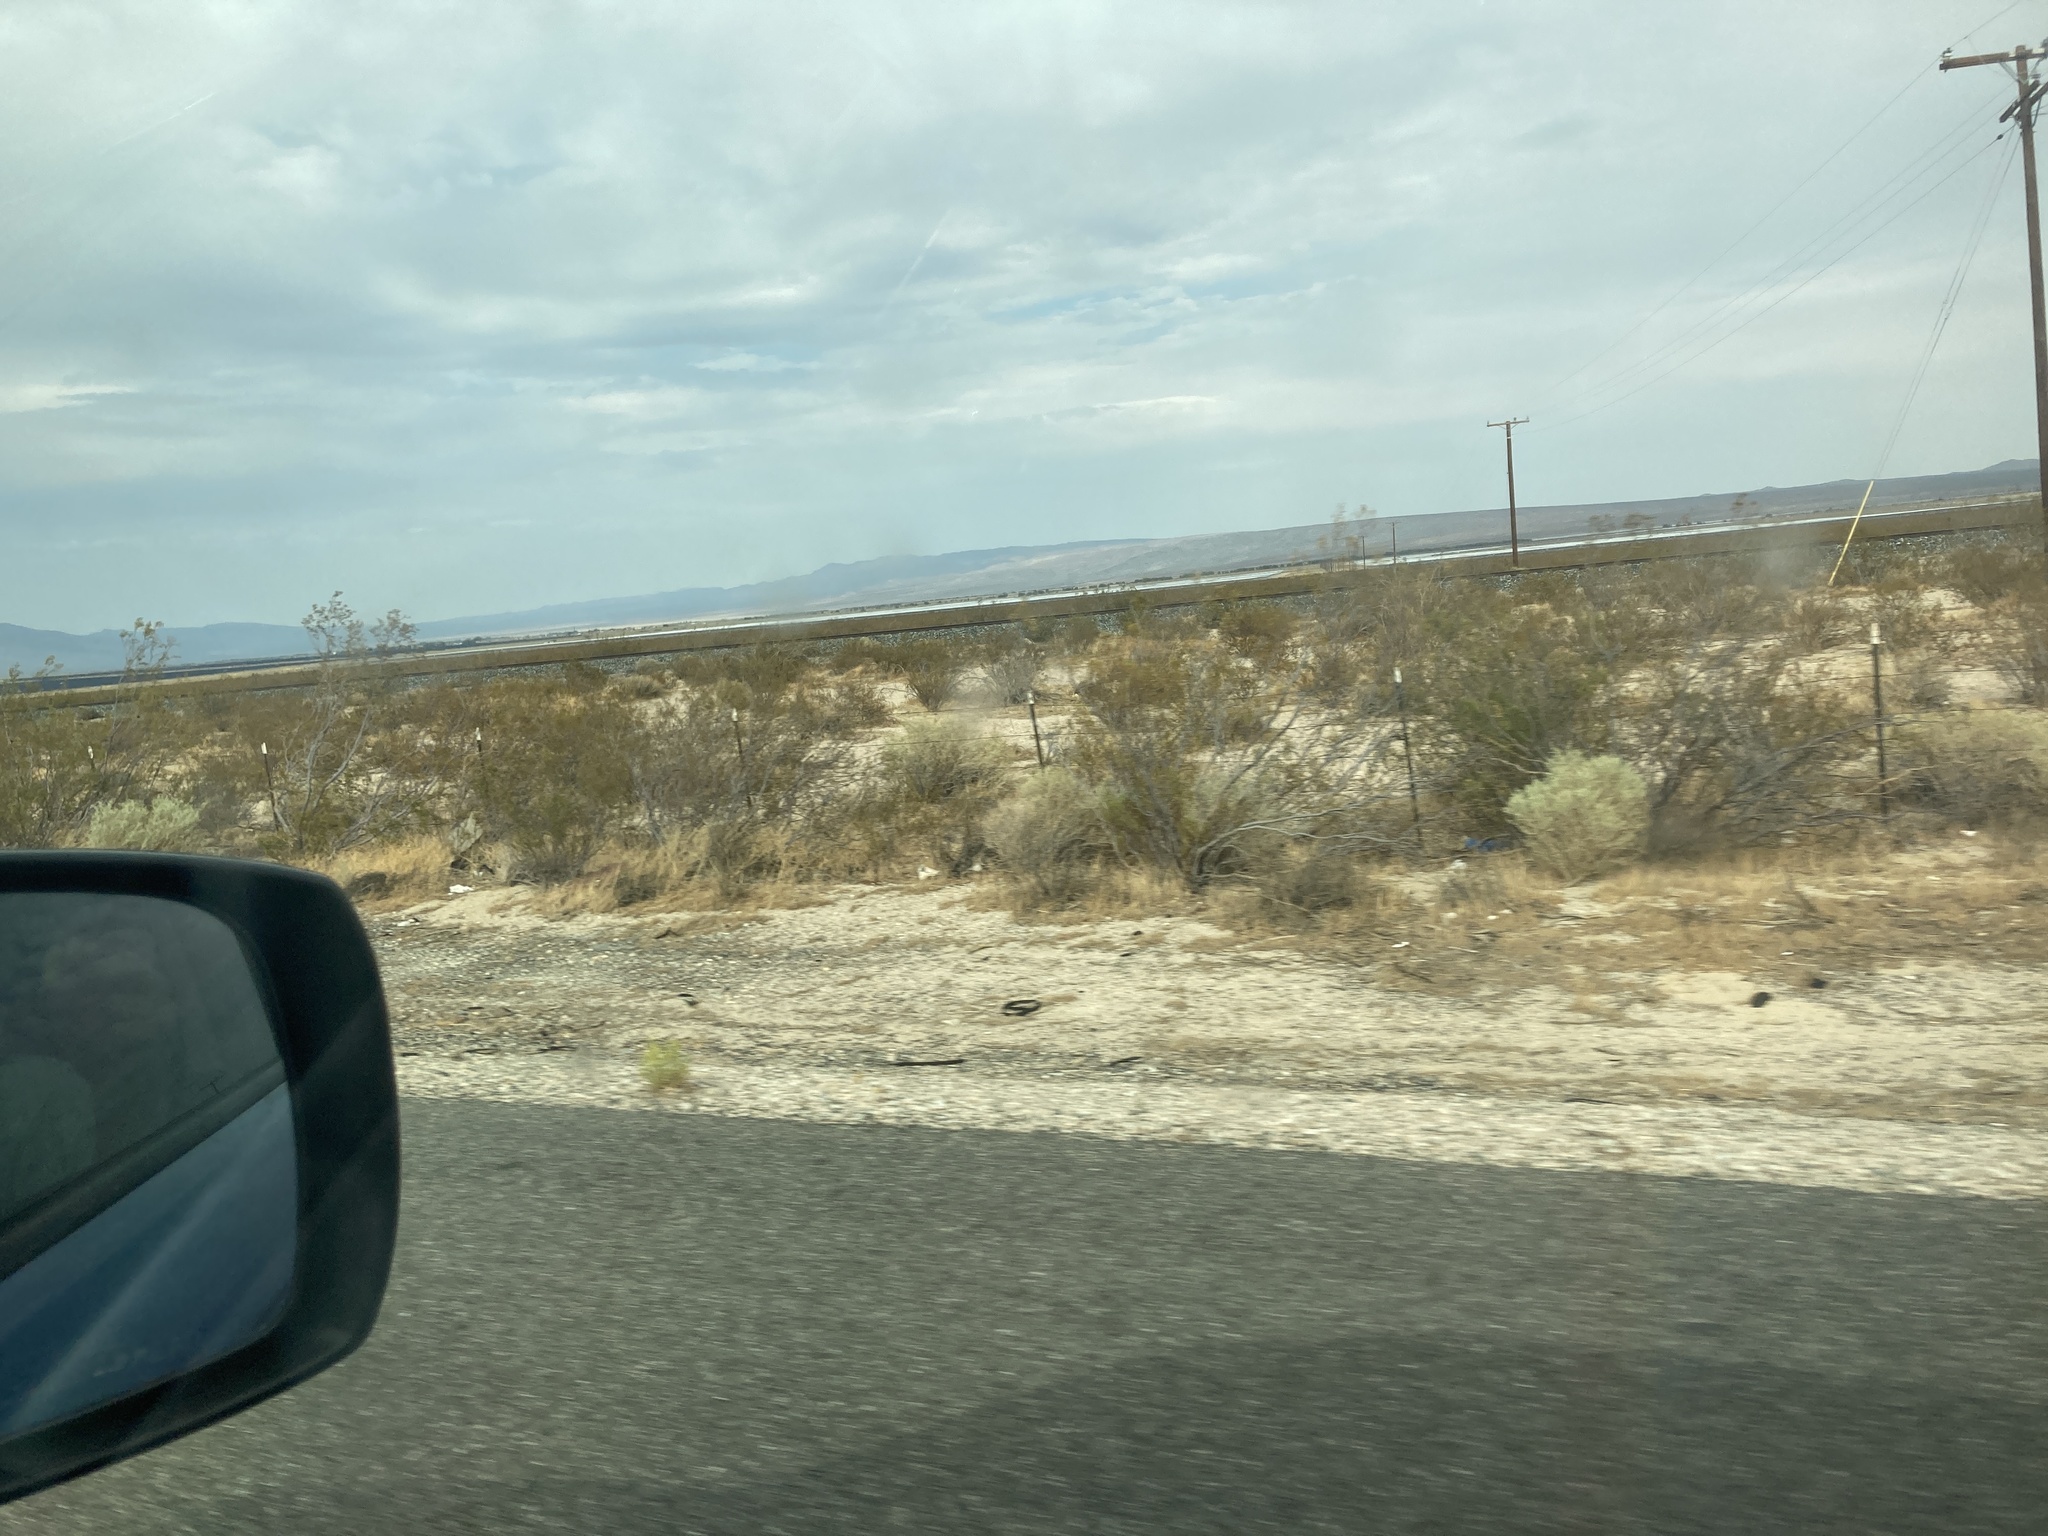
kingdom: Plantae
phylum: Tracheophyta
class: Magnoliopsida
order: Zygophyllales
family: Zygophyllaceae
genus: Larrea
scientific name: Larrea tridentata
